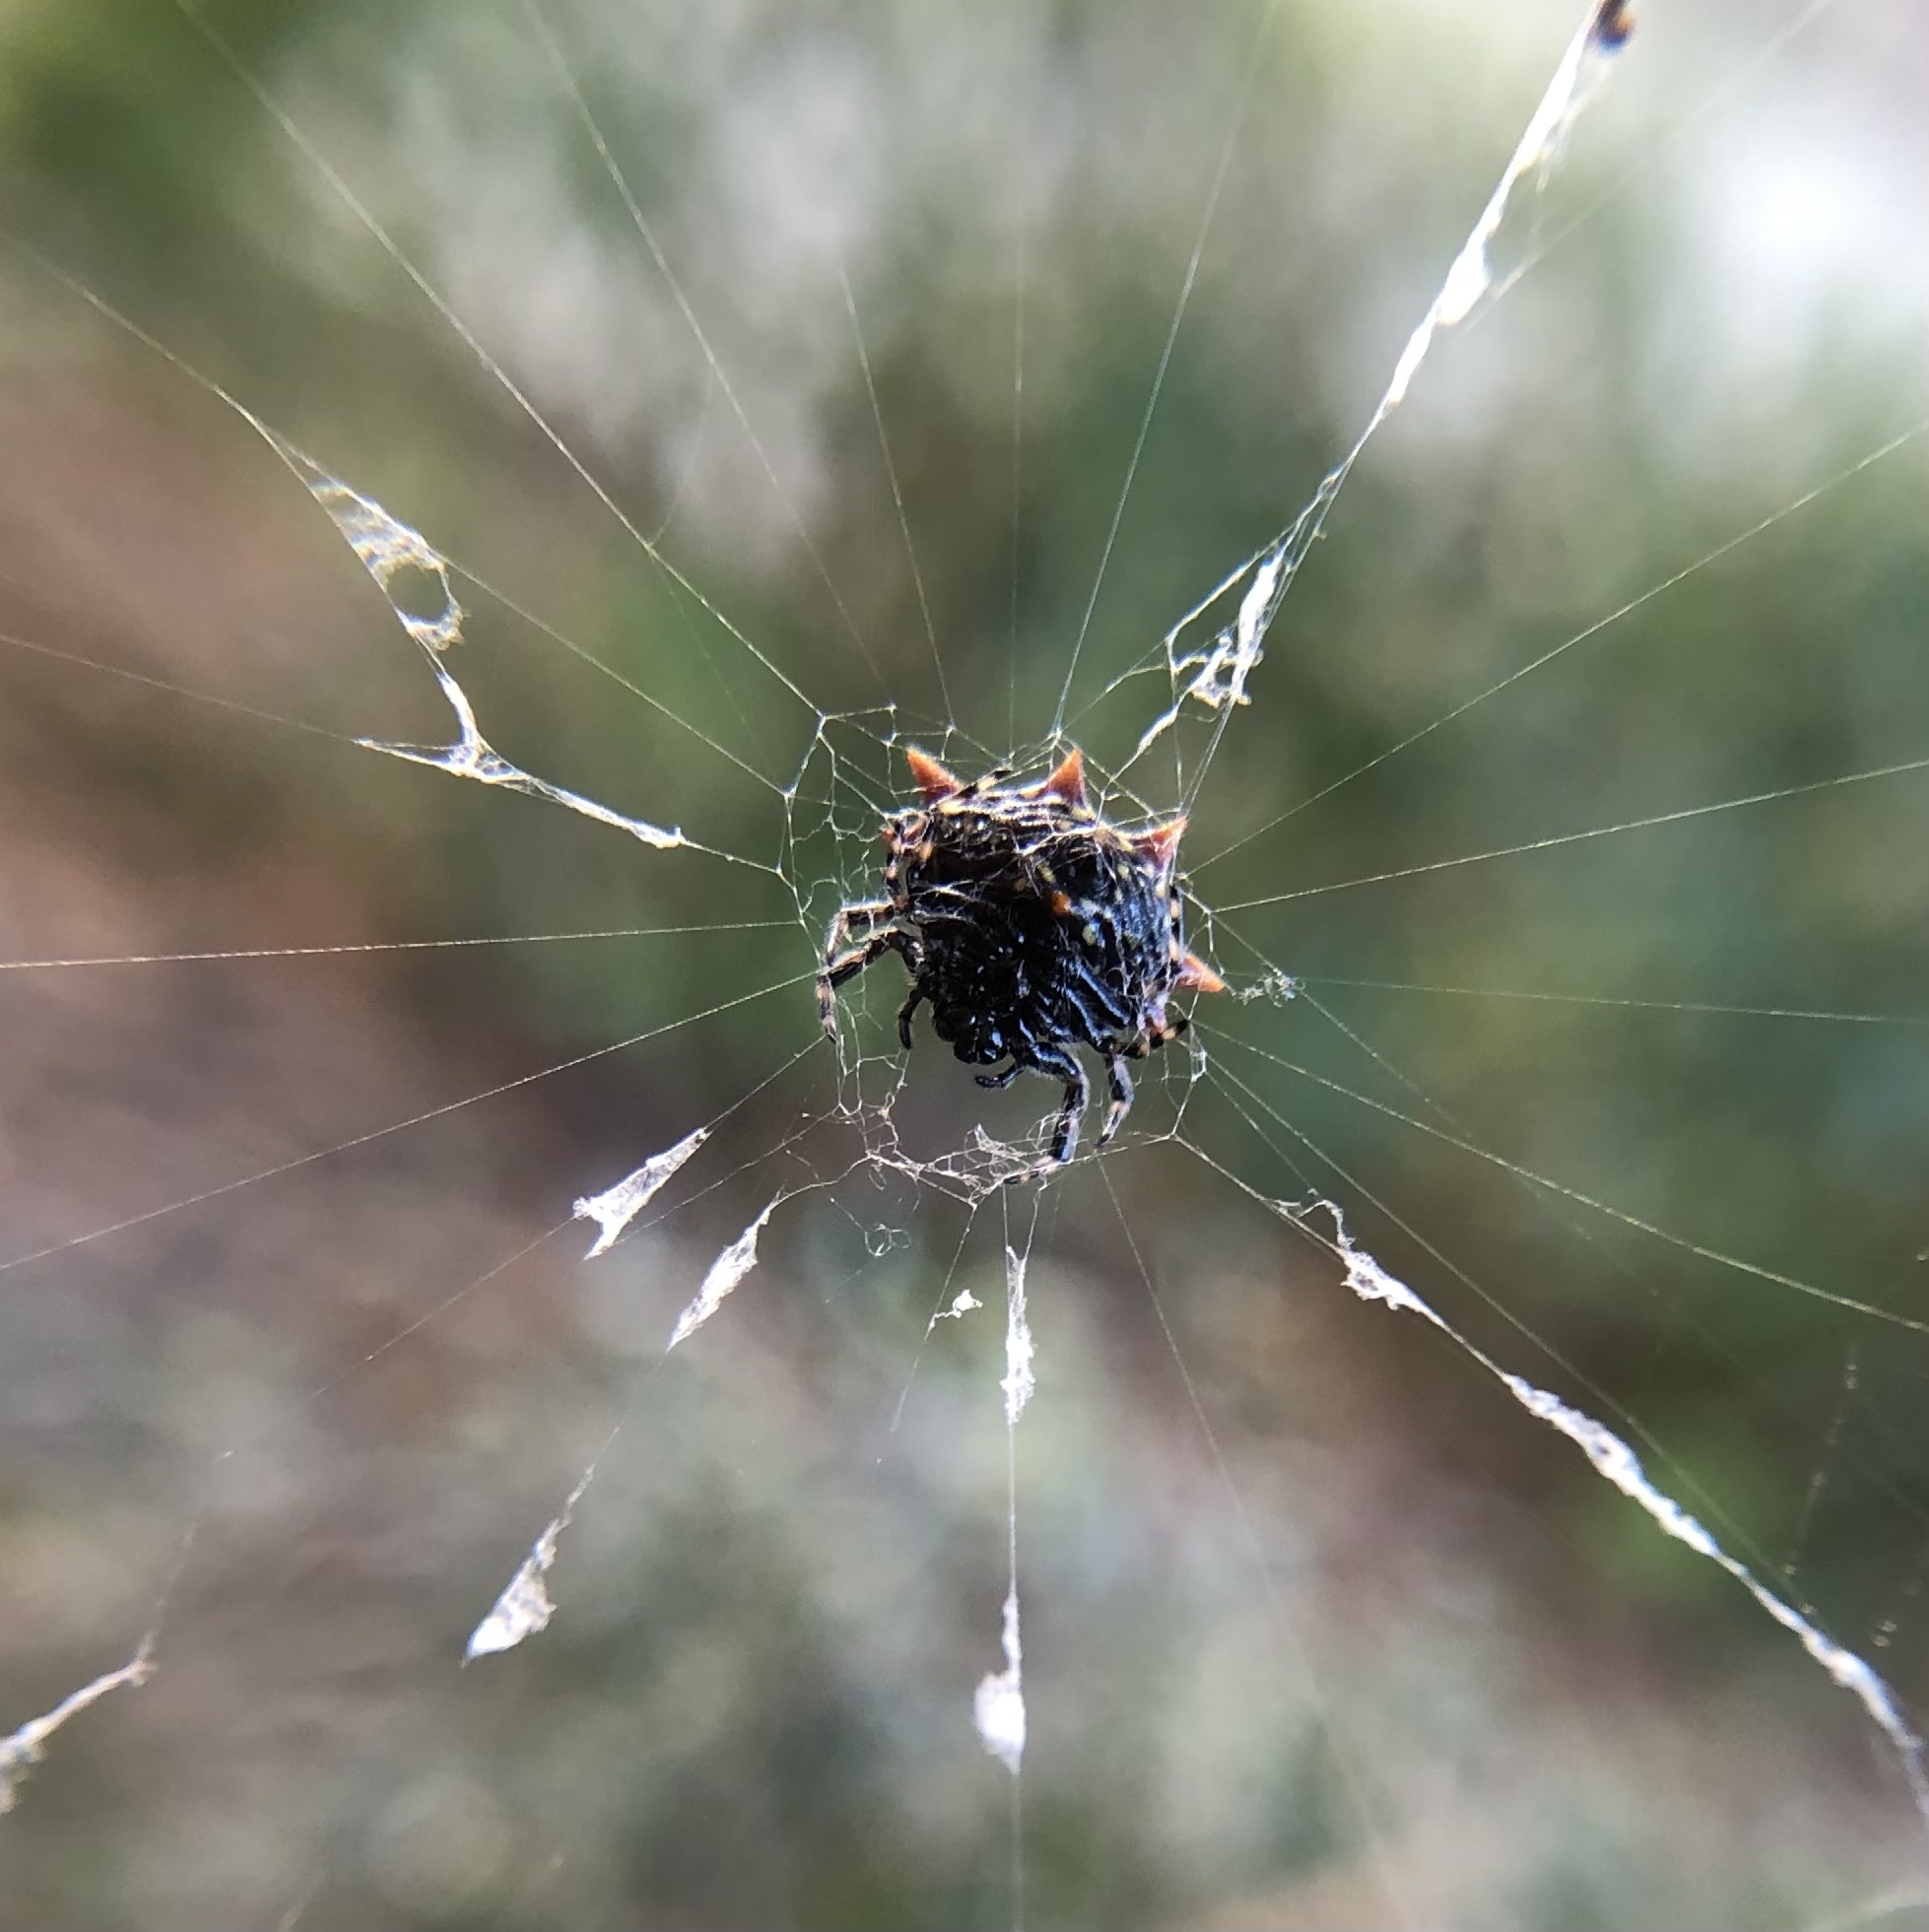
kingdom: Animalia
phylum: Arthropoda
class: Arachnida
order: Araneae
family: Araneidae
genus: Gasteracantha
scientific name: Gasteracantha cancriformis
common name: Orb weavers
